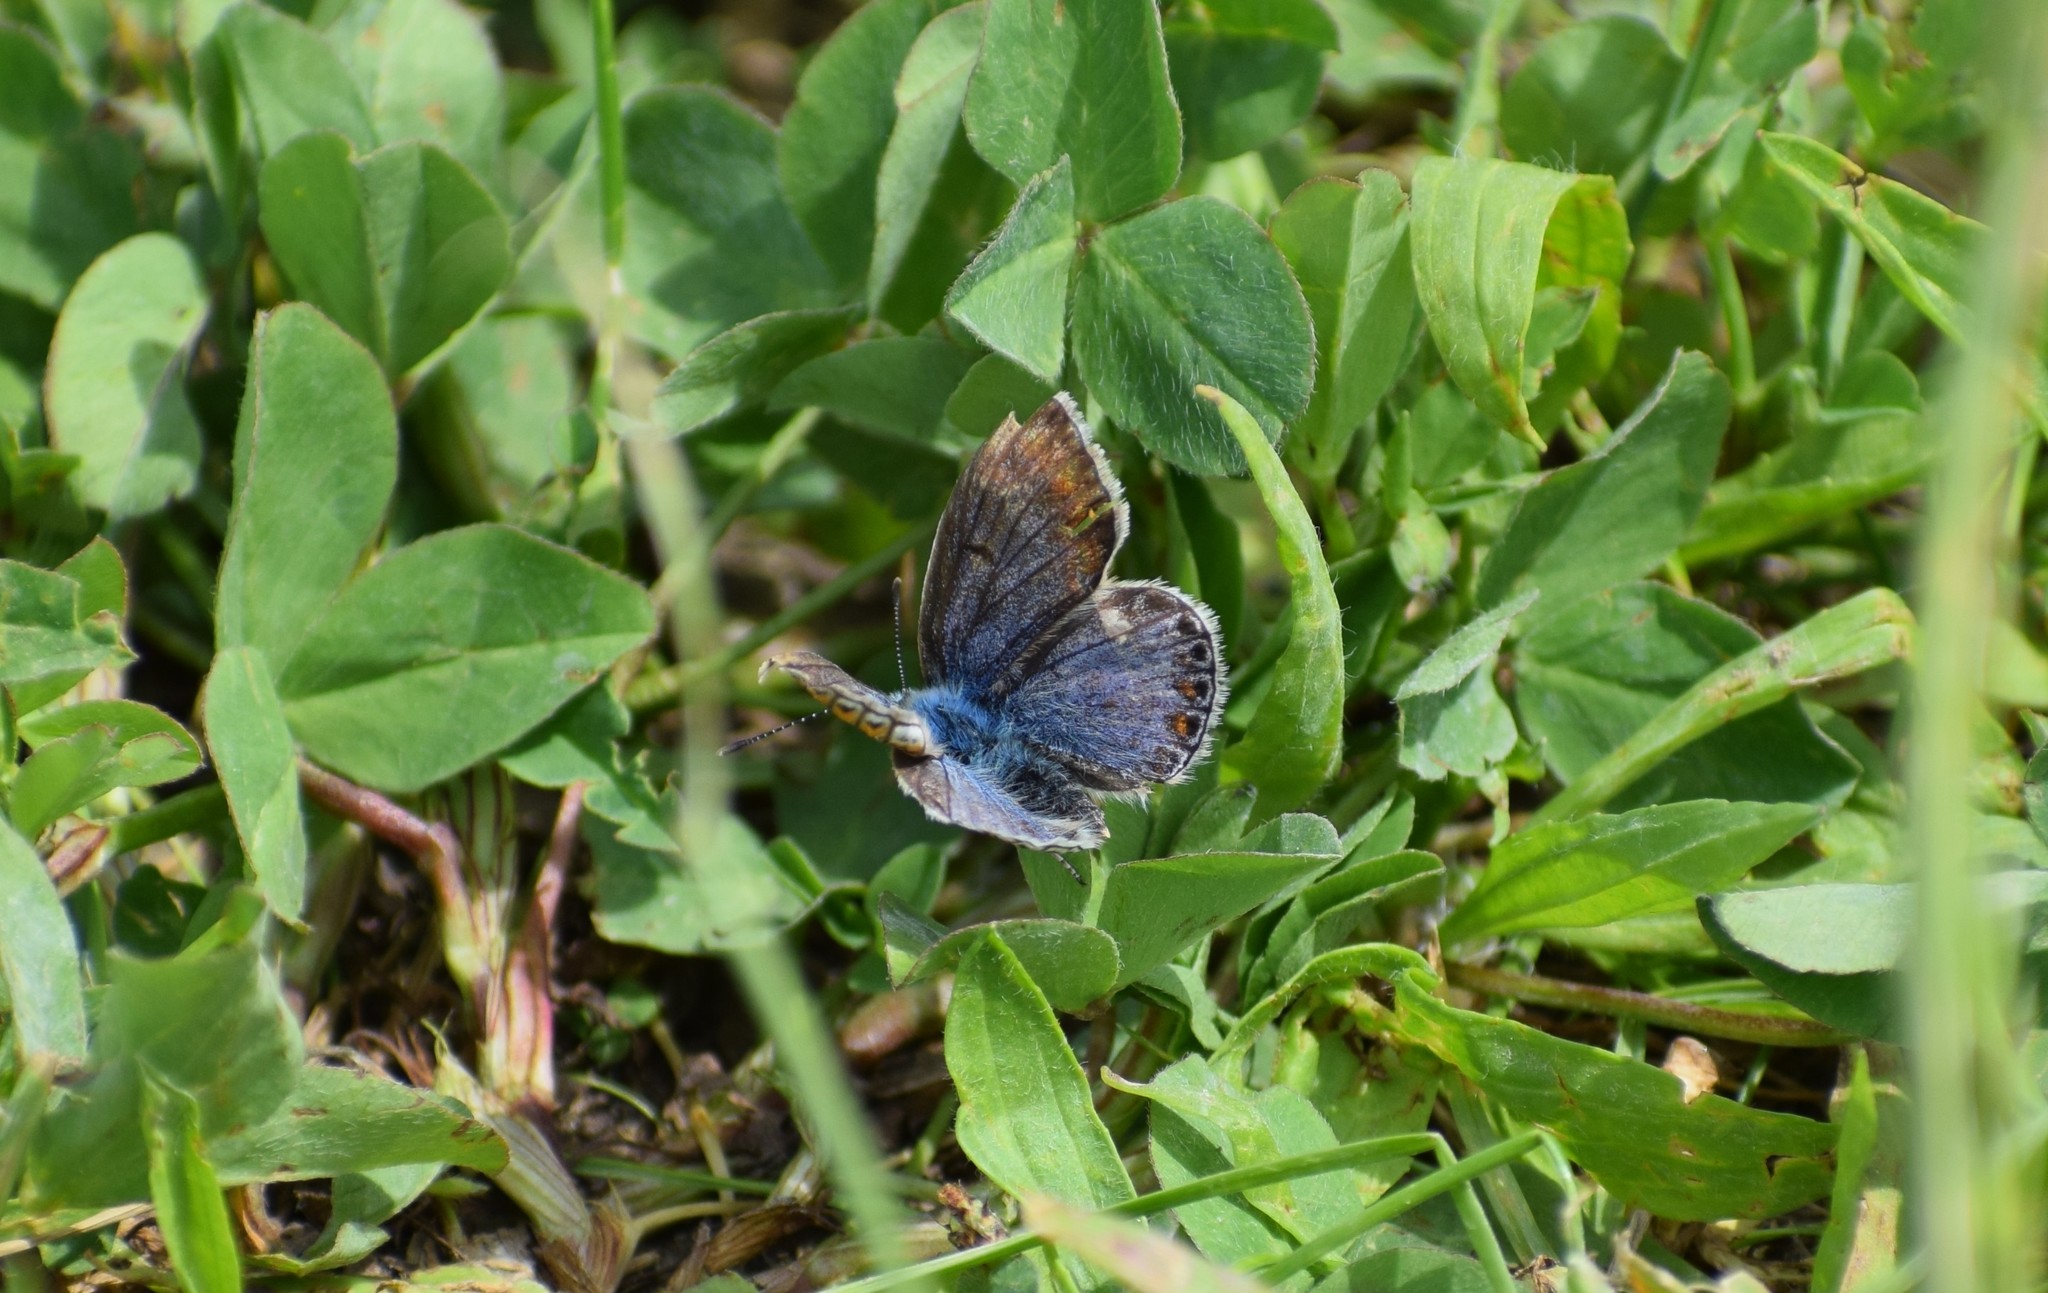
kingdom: Animalia
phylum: Arthropoda
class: Insecta
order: Lepidoptera
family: Lycaenidae
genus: Polyommatus
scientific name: Polyommatus icarus
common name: Common blue
